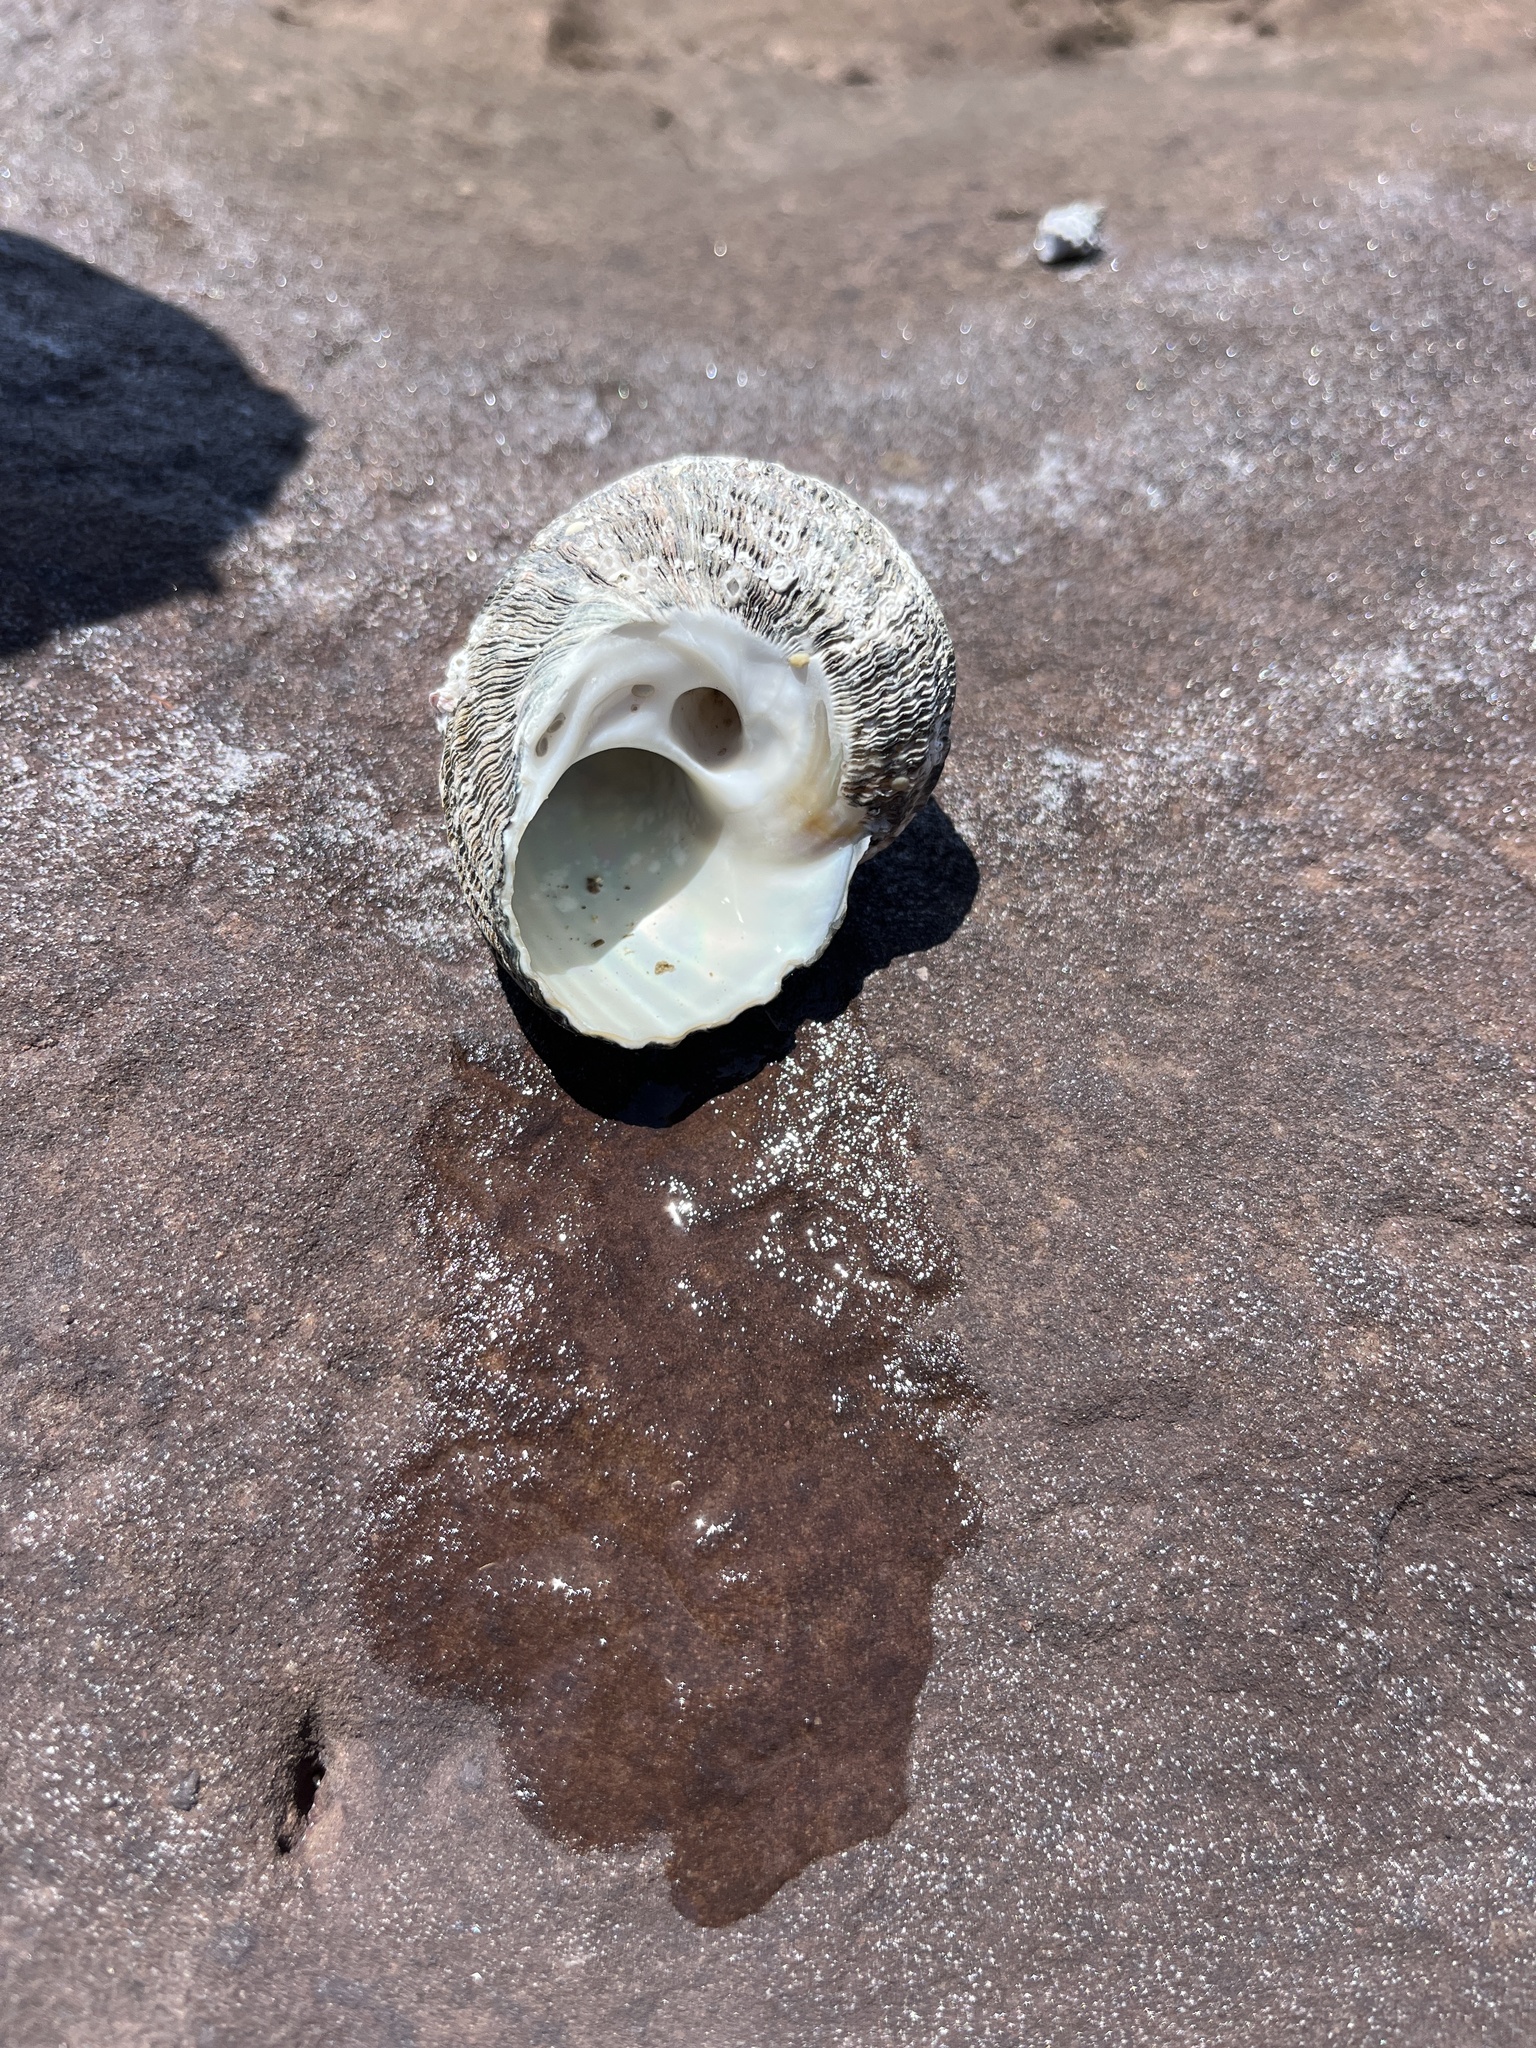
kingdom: Animalia
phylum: Mollusca
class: Gastropoda
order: Trochida
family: Turbinidae
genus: Lunella
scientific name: Lunella torquata
